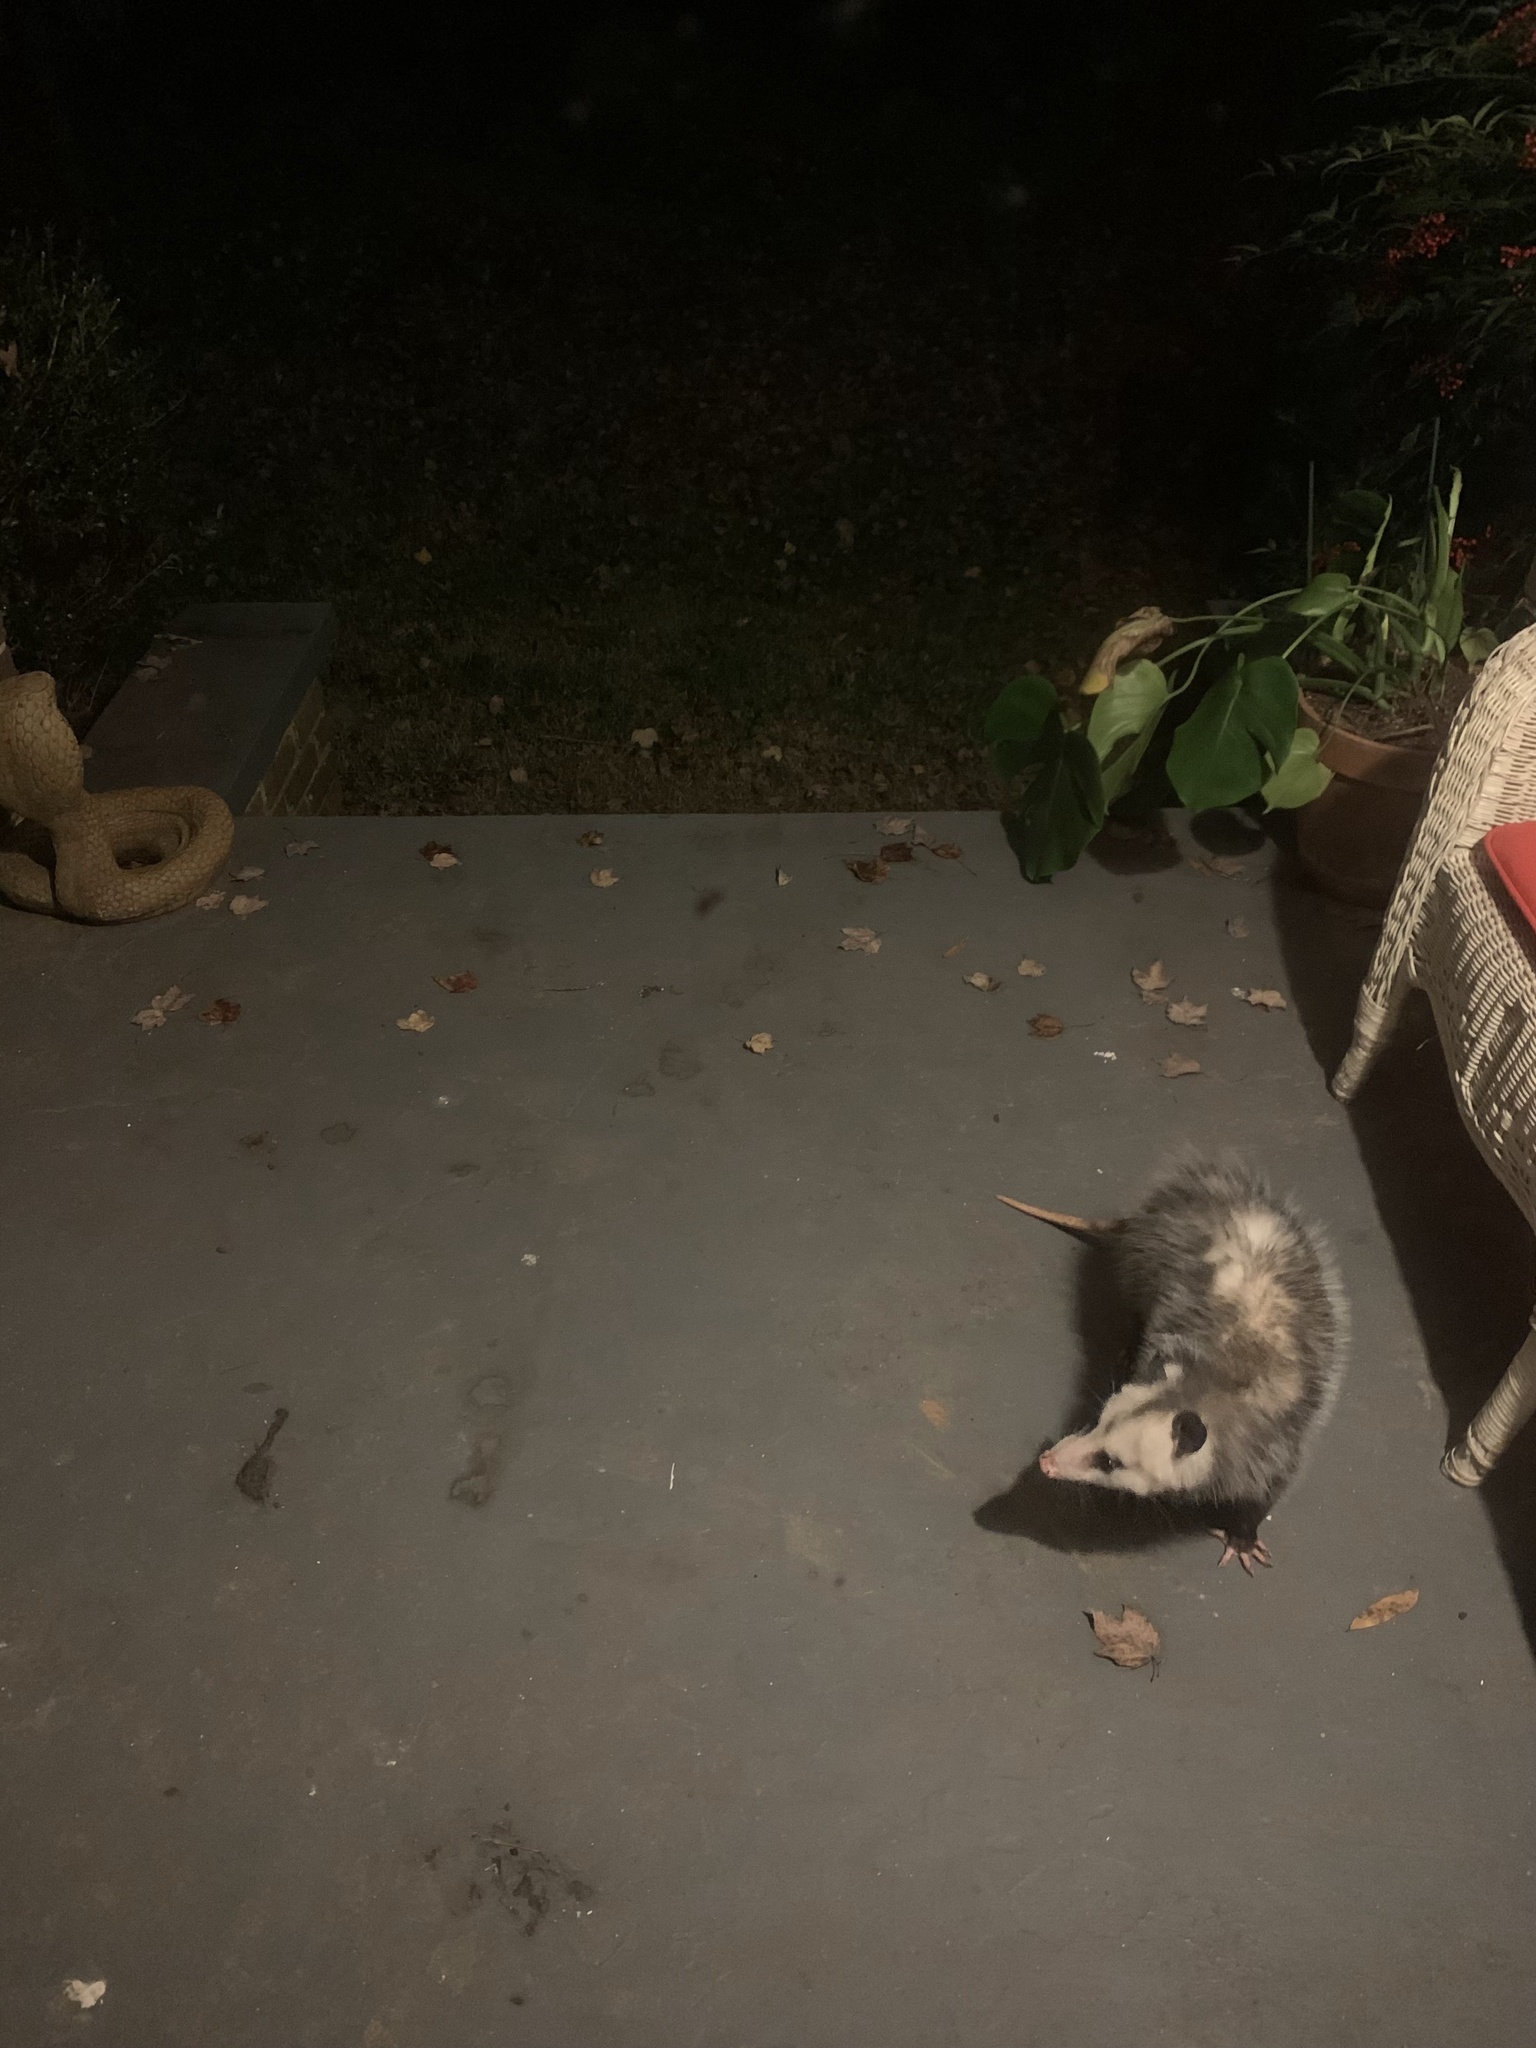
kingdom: Animalia
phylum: Chordata
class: Mammalia
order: Didelphimorphia
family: Didelphidae
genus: Didelphis
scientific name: Didelphis virginiana
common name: Virginia opossum
